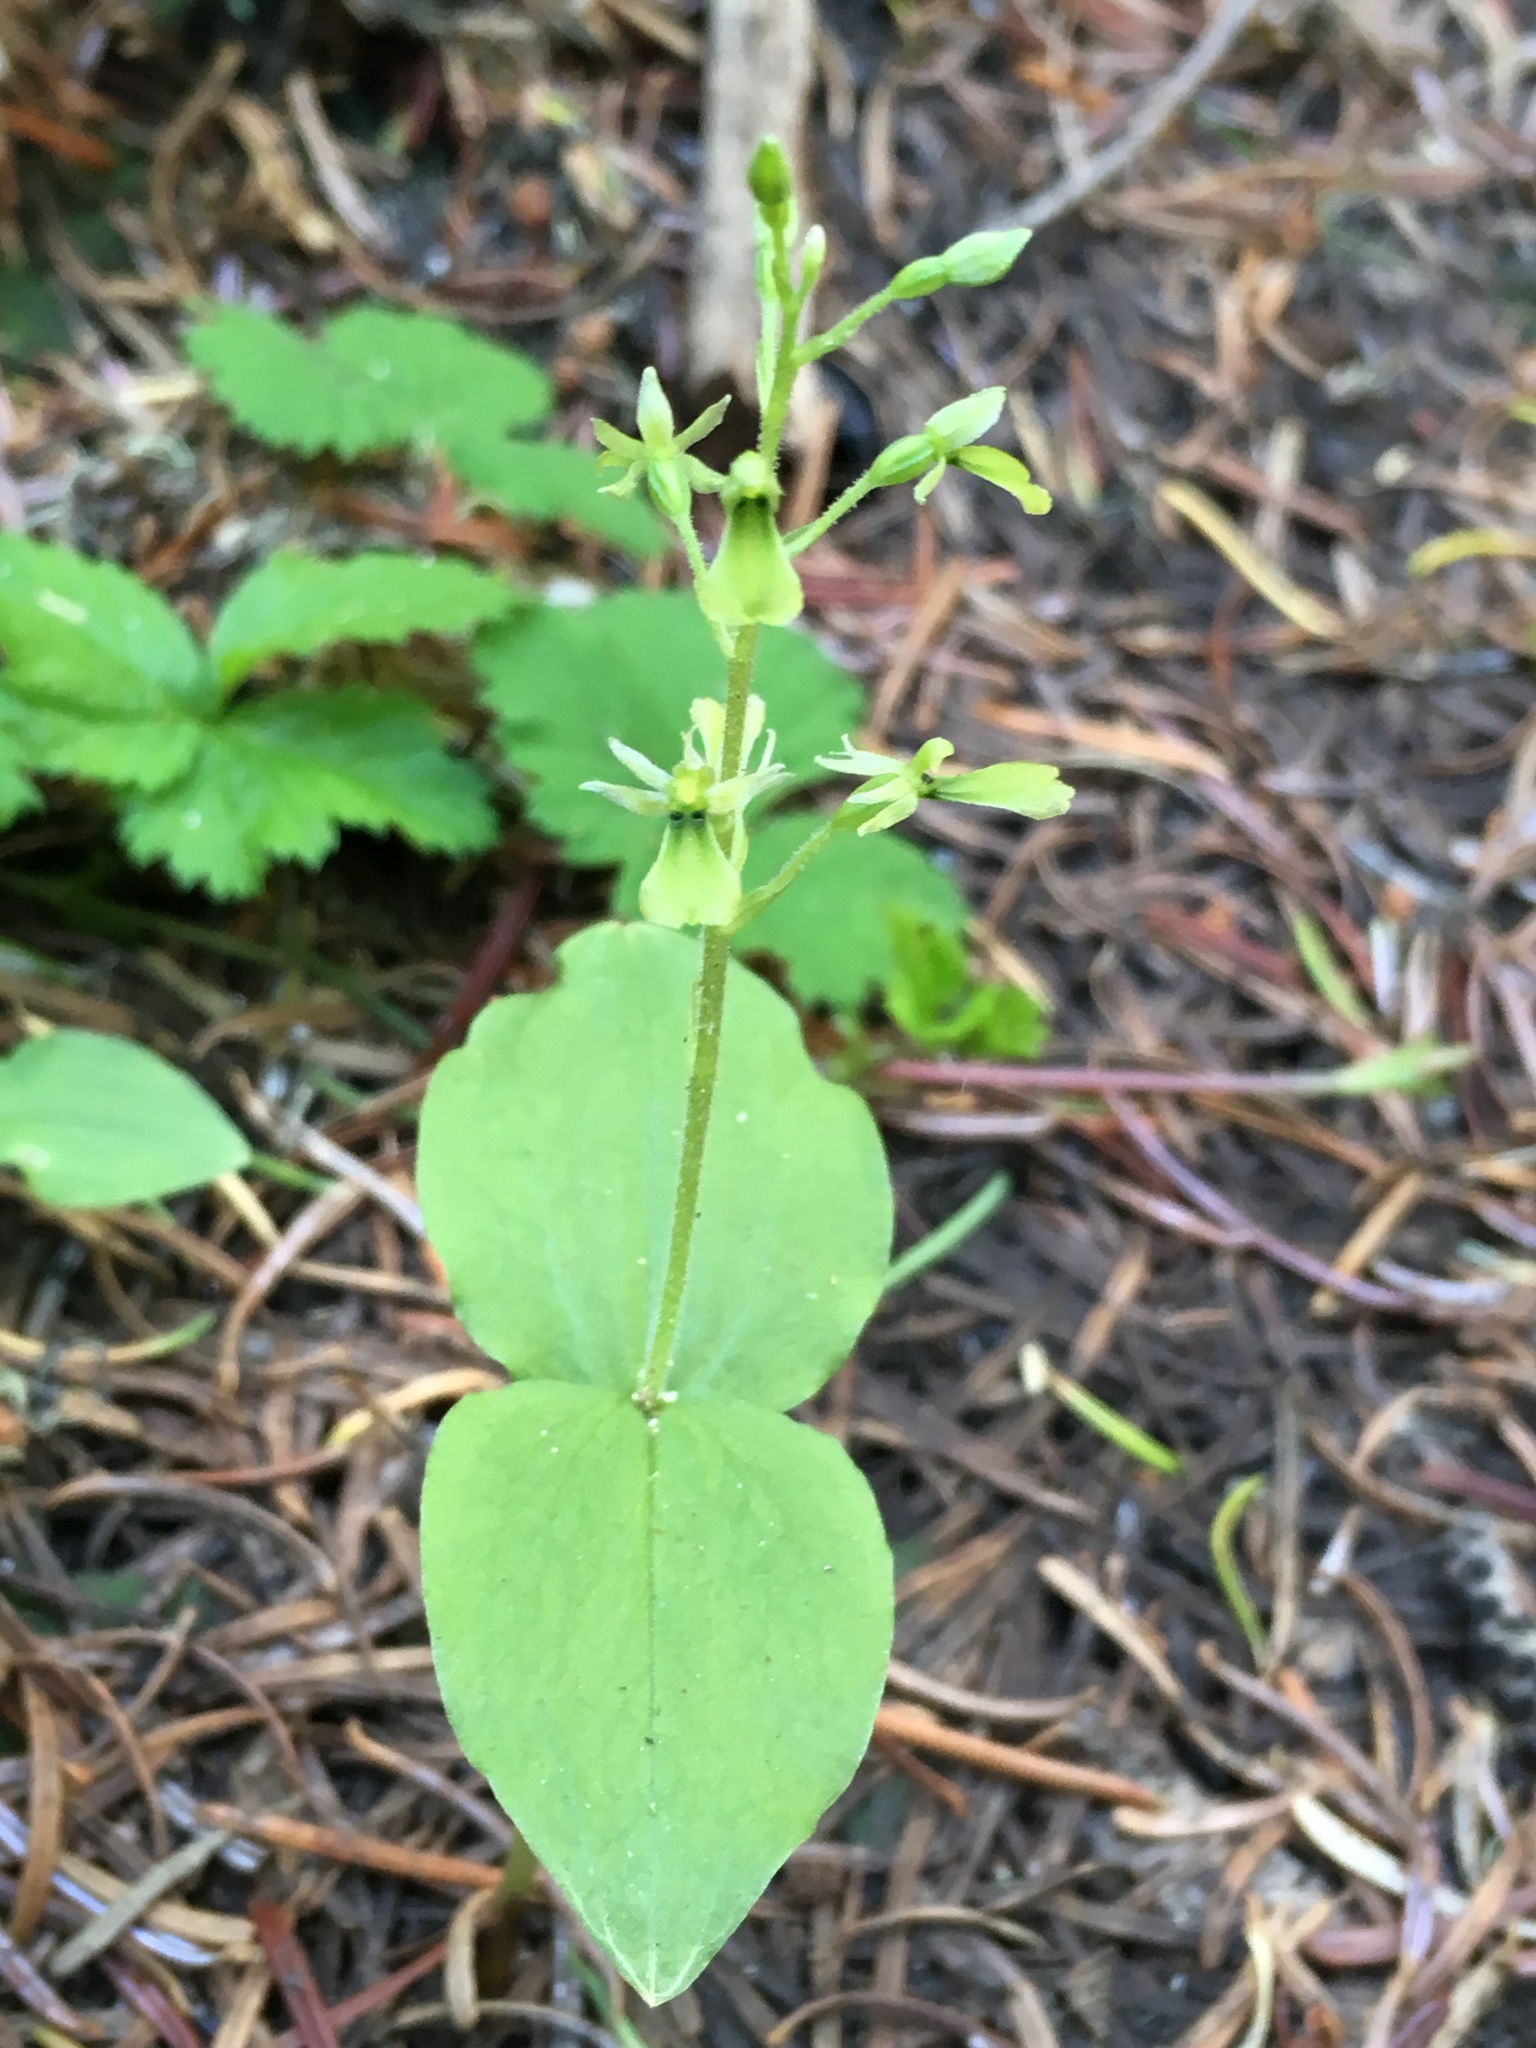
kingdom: Plantae
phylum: Tracheophyta
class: Liliopsida
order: Asparagales
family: Orchidaceae
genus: Neottia
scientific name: Neottia banksiana
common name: Northwestern twayblade
